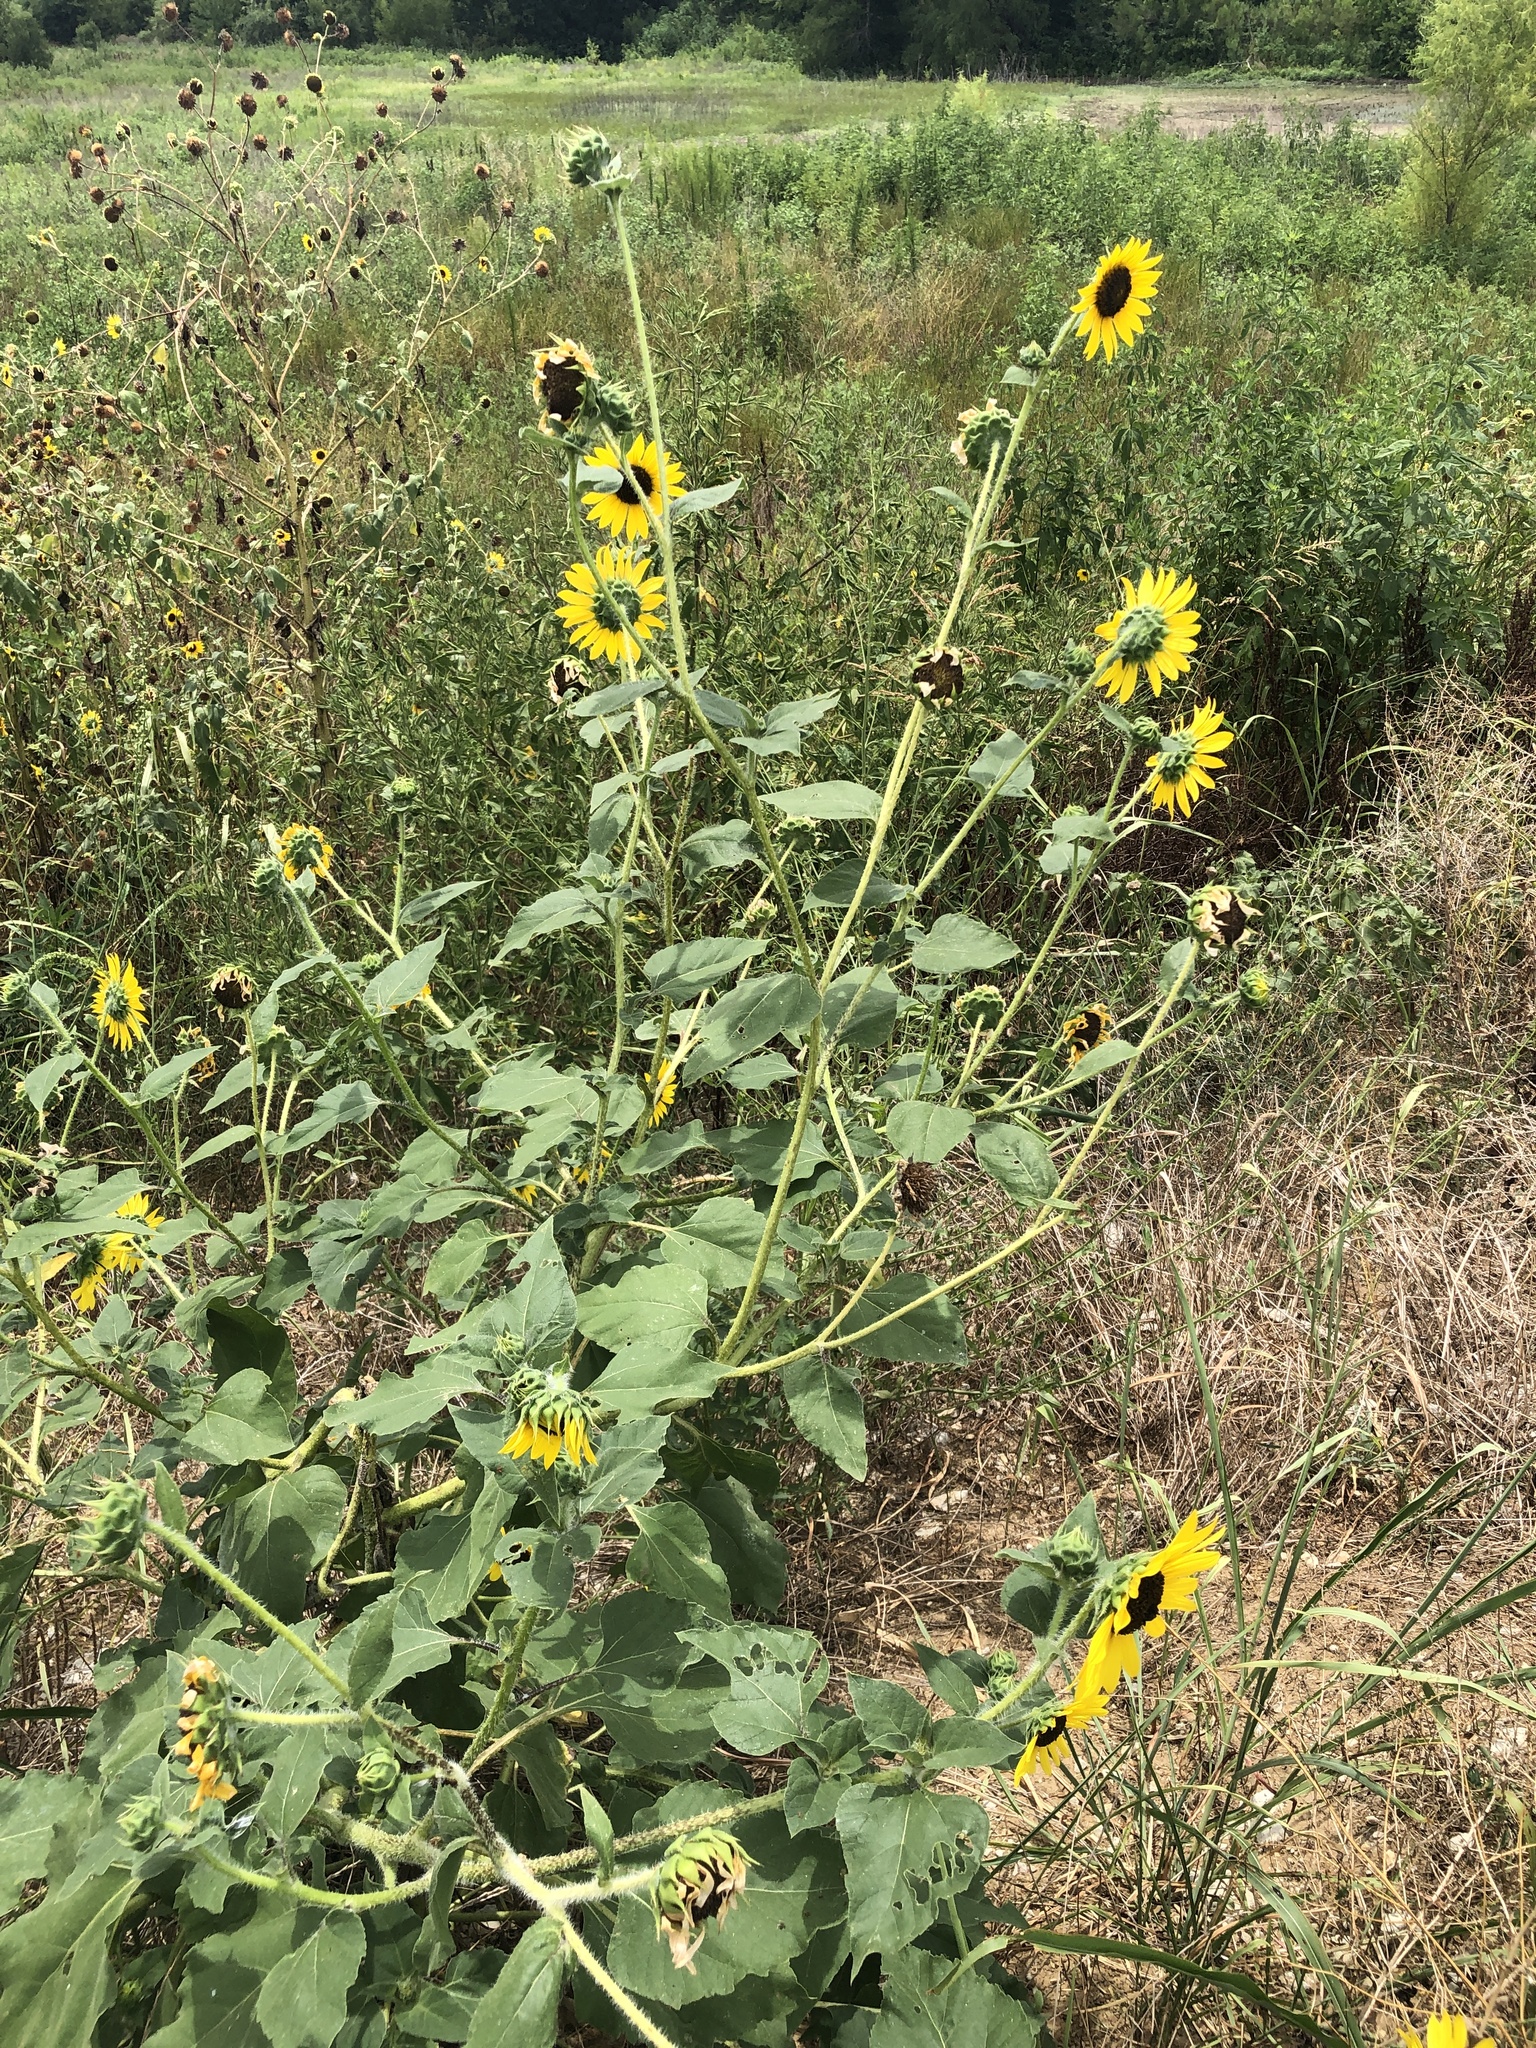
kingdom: Plantae
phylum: Tracheophyta
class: Magnoliopsida
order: Asterales
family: Asteraceae
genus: Helianthus
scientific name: Helianthus annuus
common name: Sunflower
